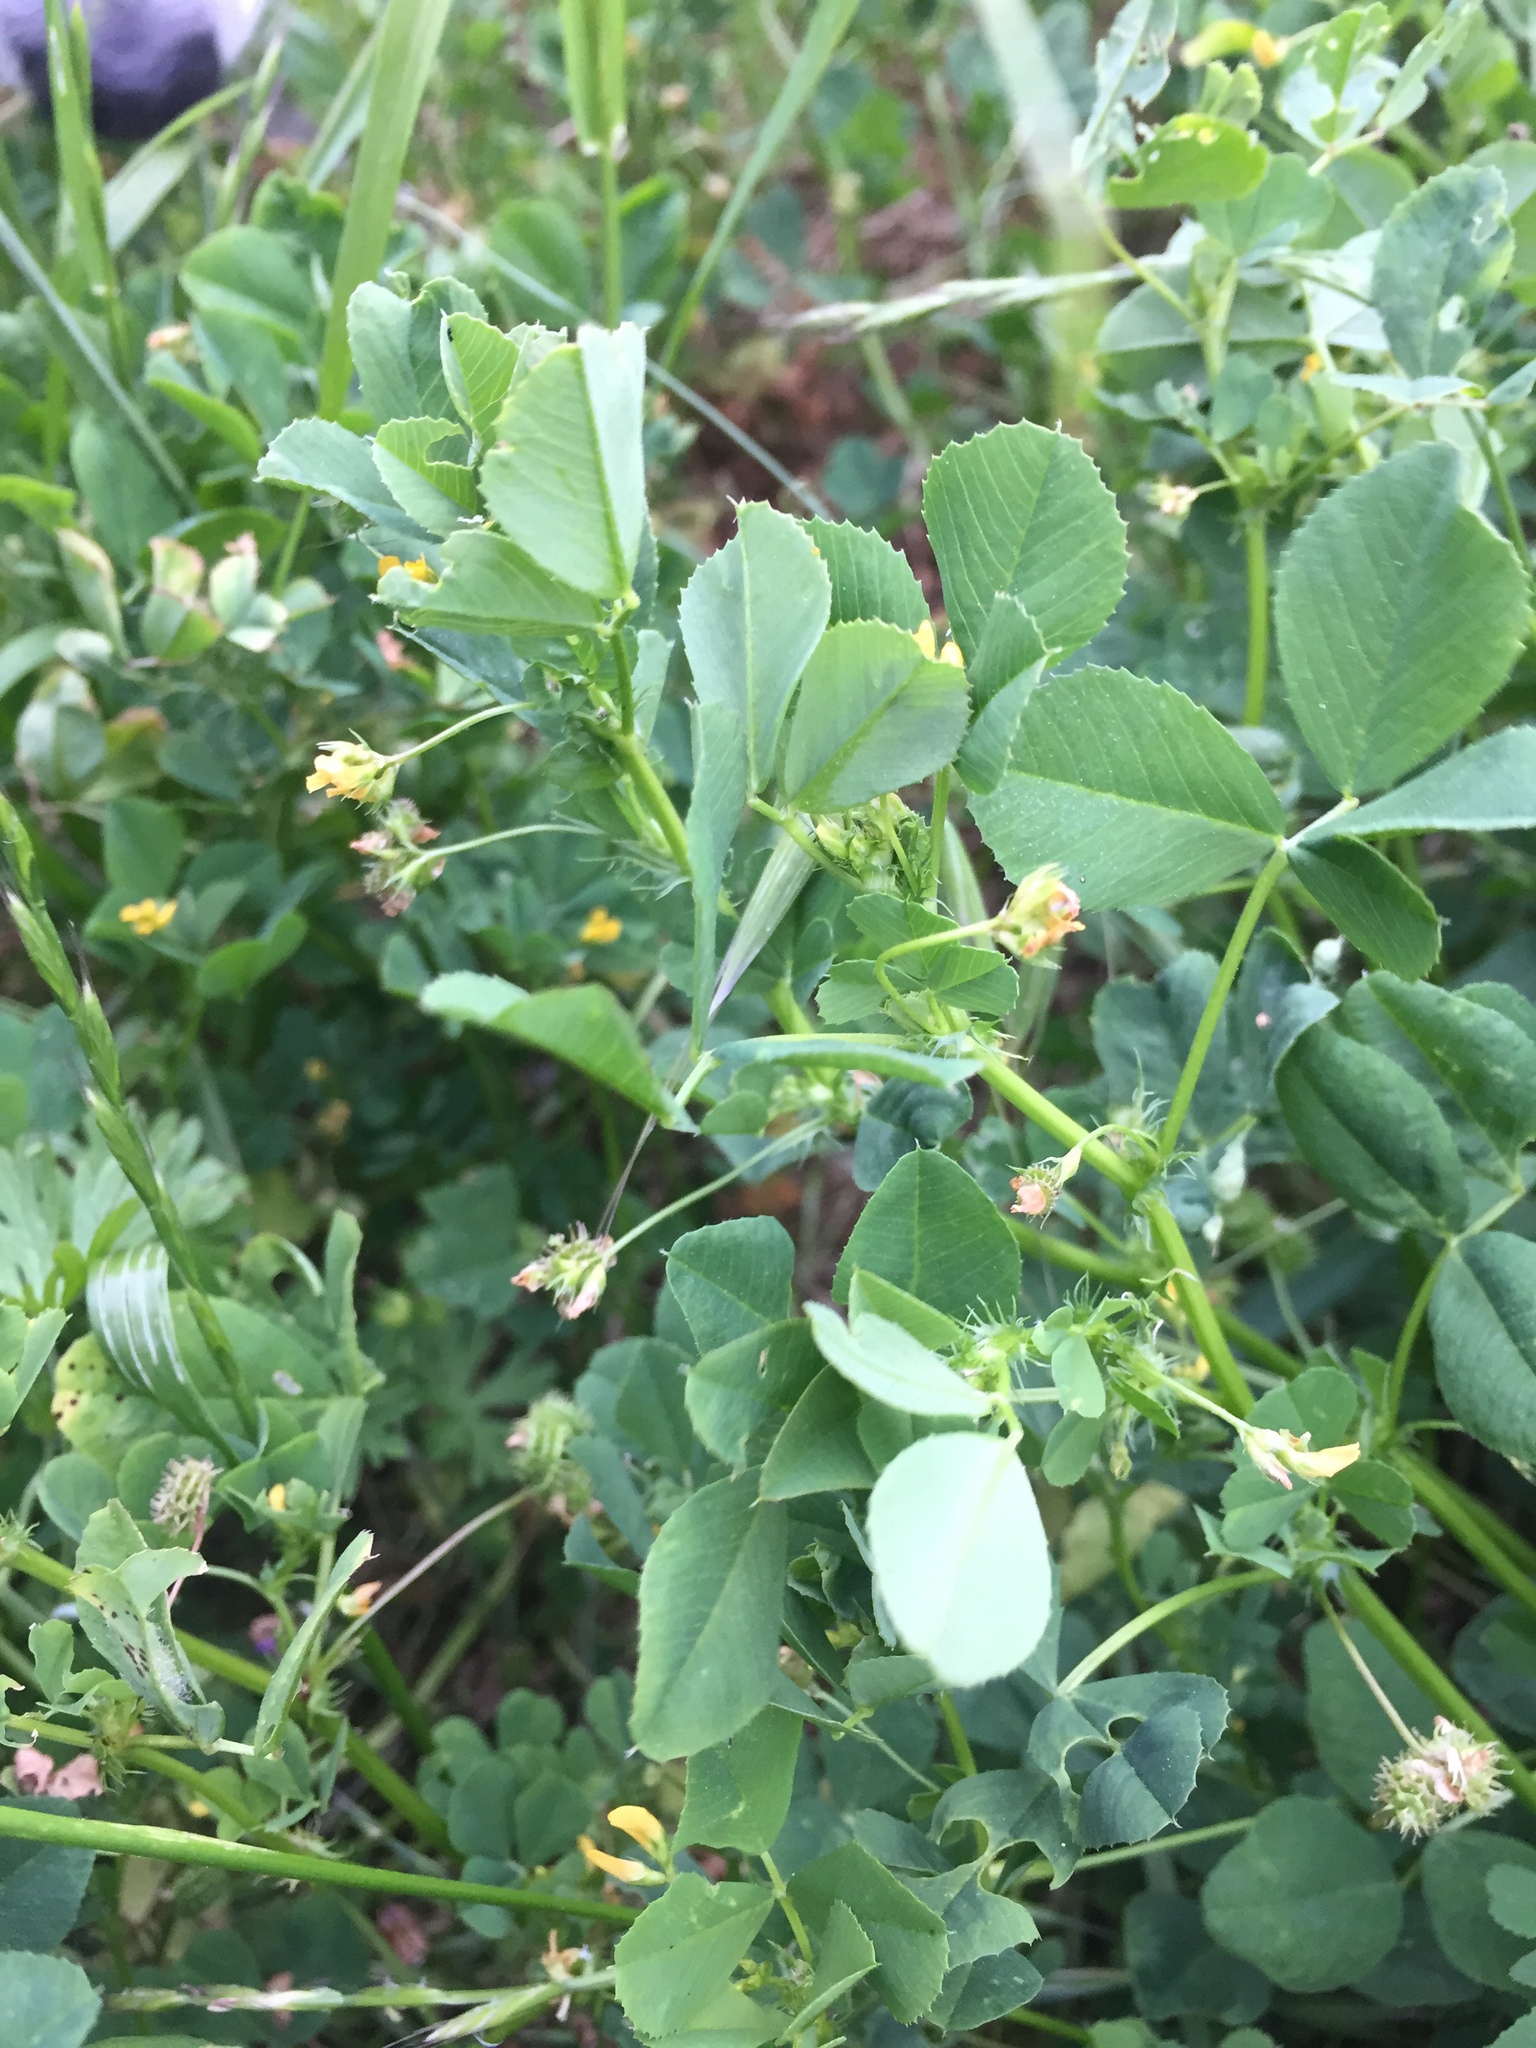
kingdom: Plantae
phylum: Tracheophyta
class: Magnoliopsida
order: Fabales
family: Fabaceae
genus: Medicago
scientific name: Medicago polymorpha
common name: Burclover
